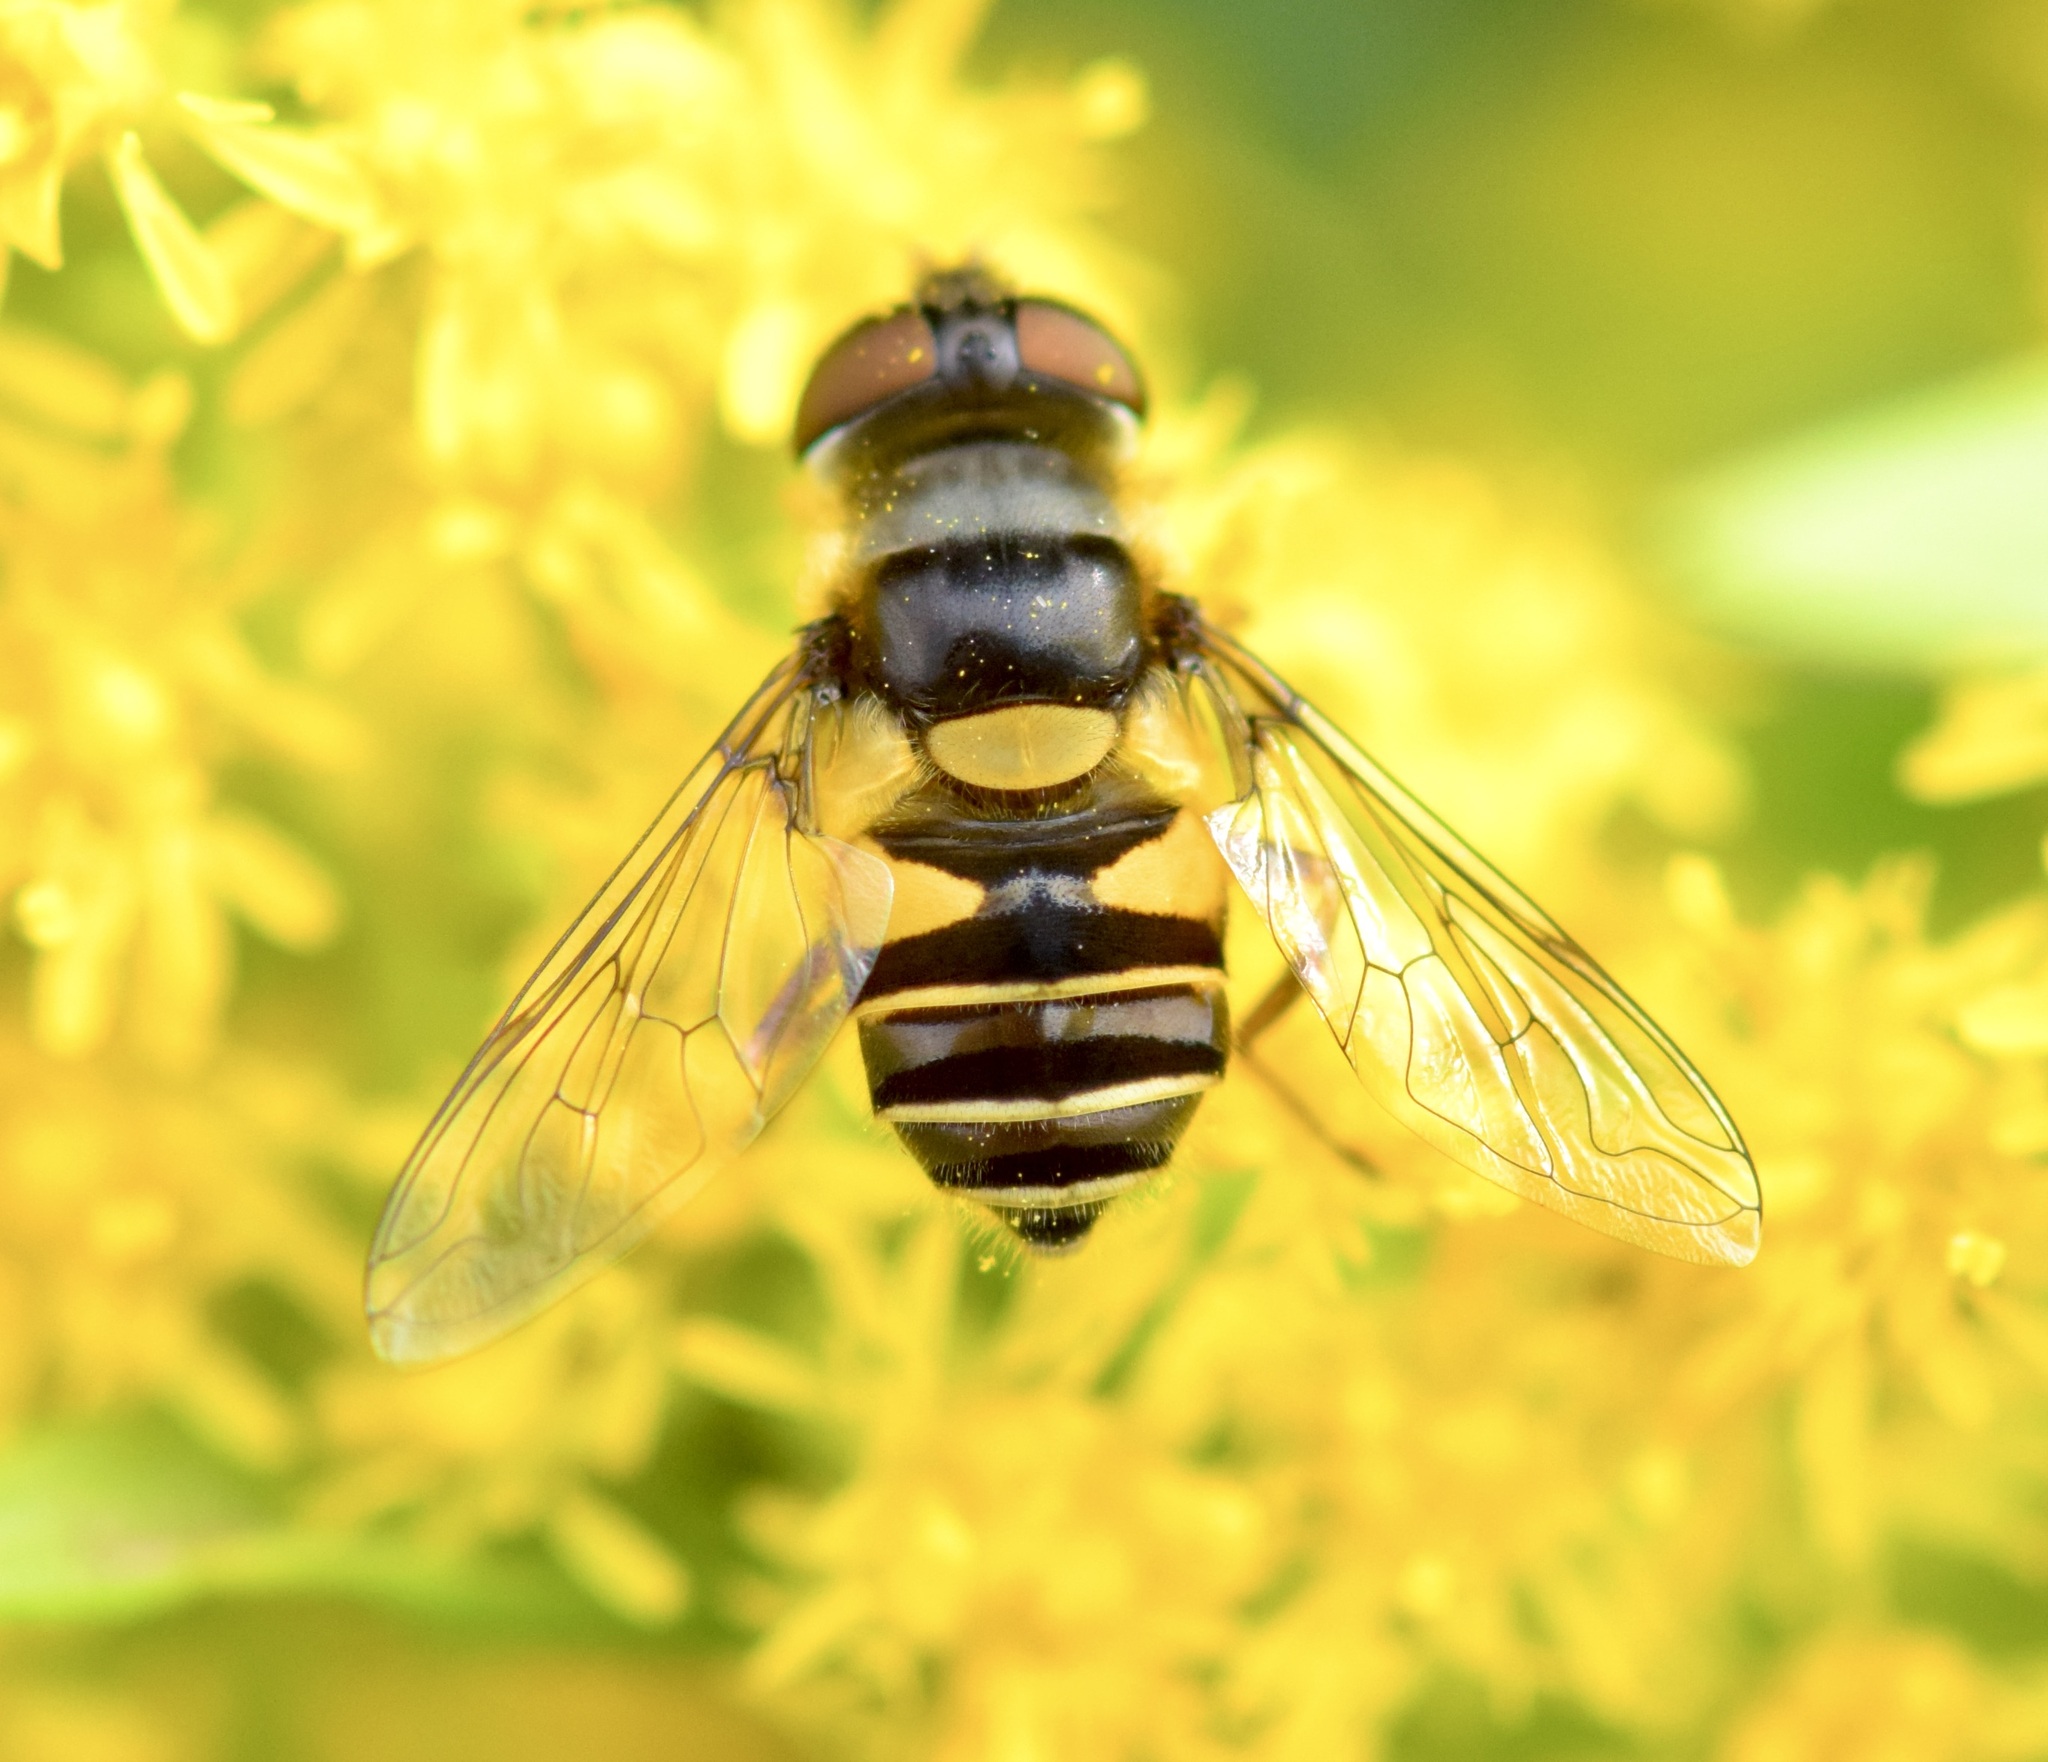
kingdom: Animalia
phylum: Arthropoda
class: Insecta
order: Diptera
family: Syrphidae
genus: Eristalis
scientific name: Eristalis transversa
